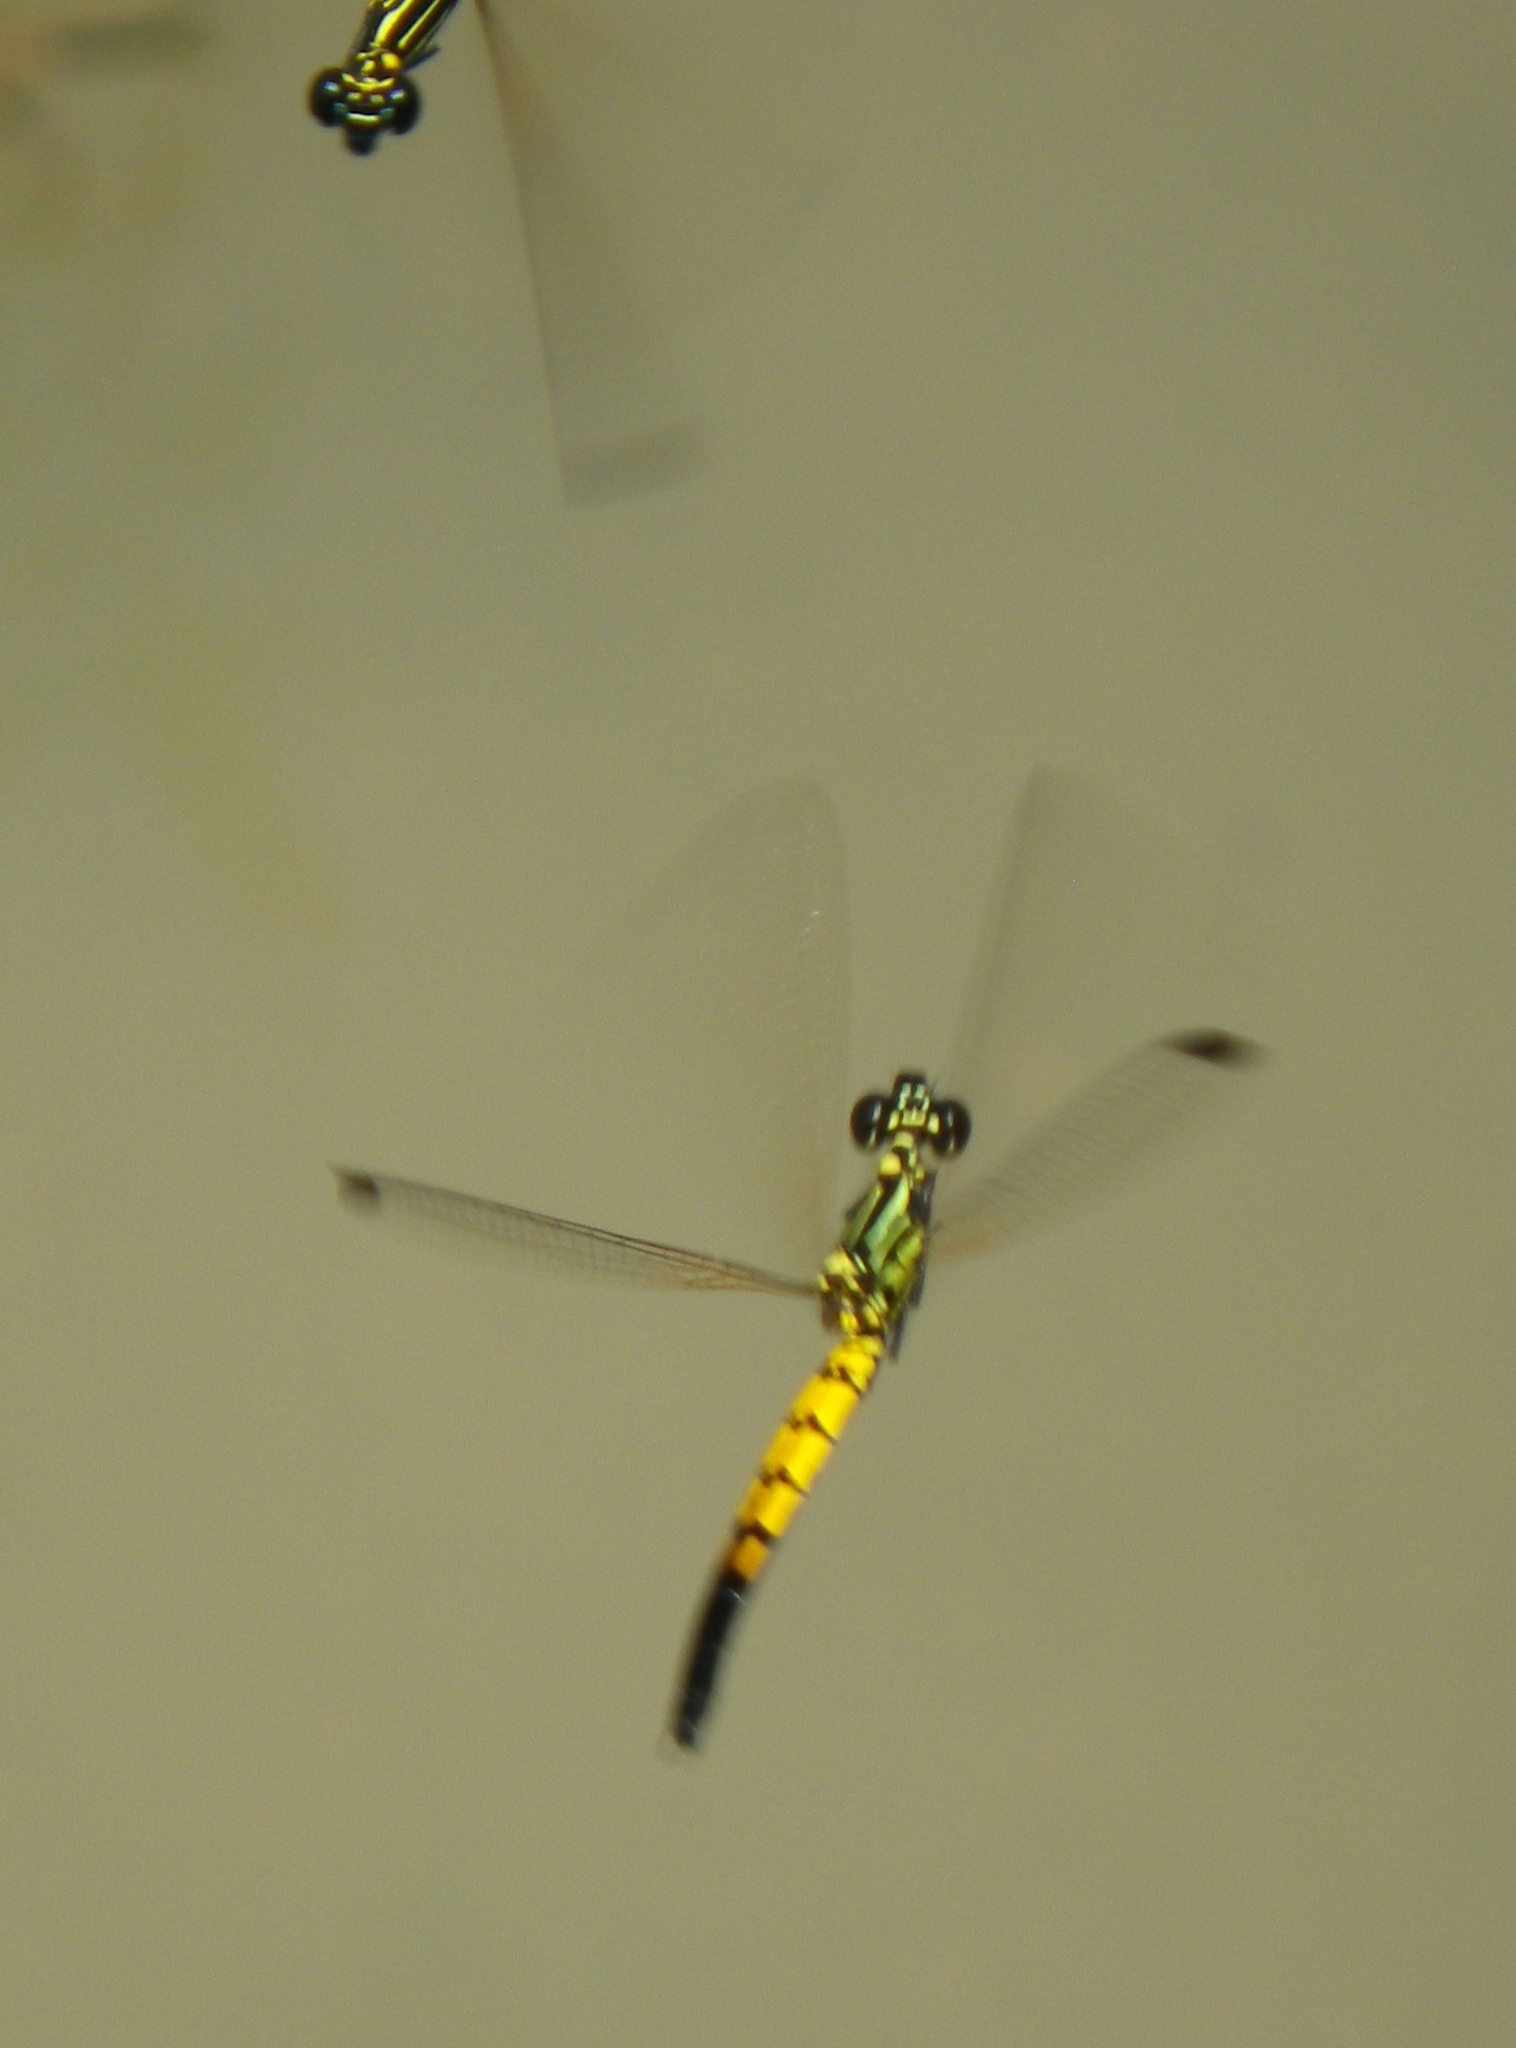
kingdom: Animalia
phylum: Arthropoda
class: Insecta
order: Odonata
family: Chlorocyphidae
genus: Libellago
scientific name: Libellago lineata
